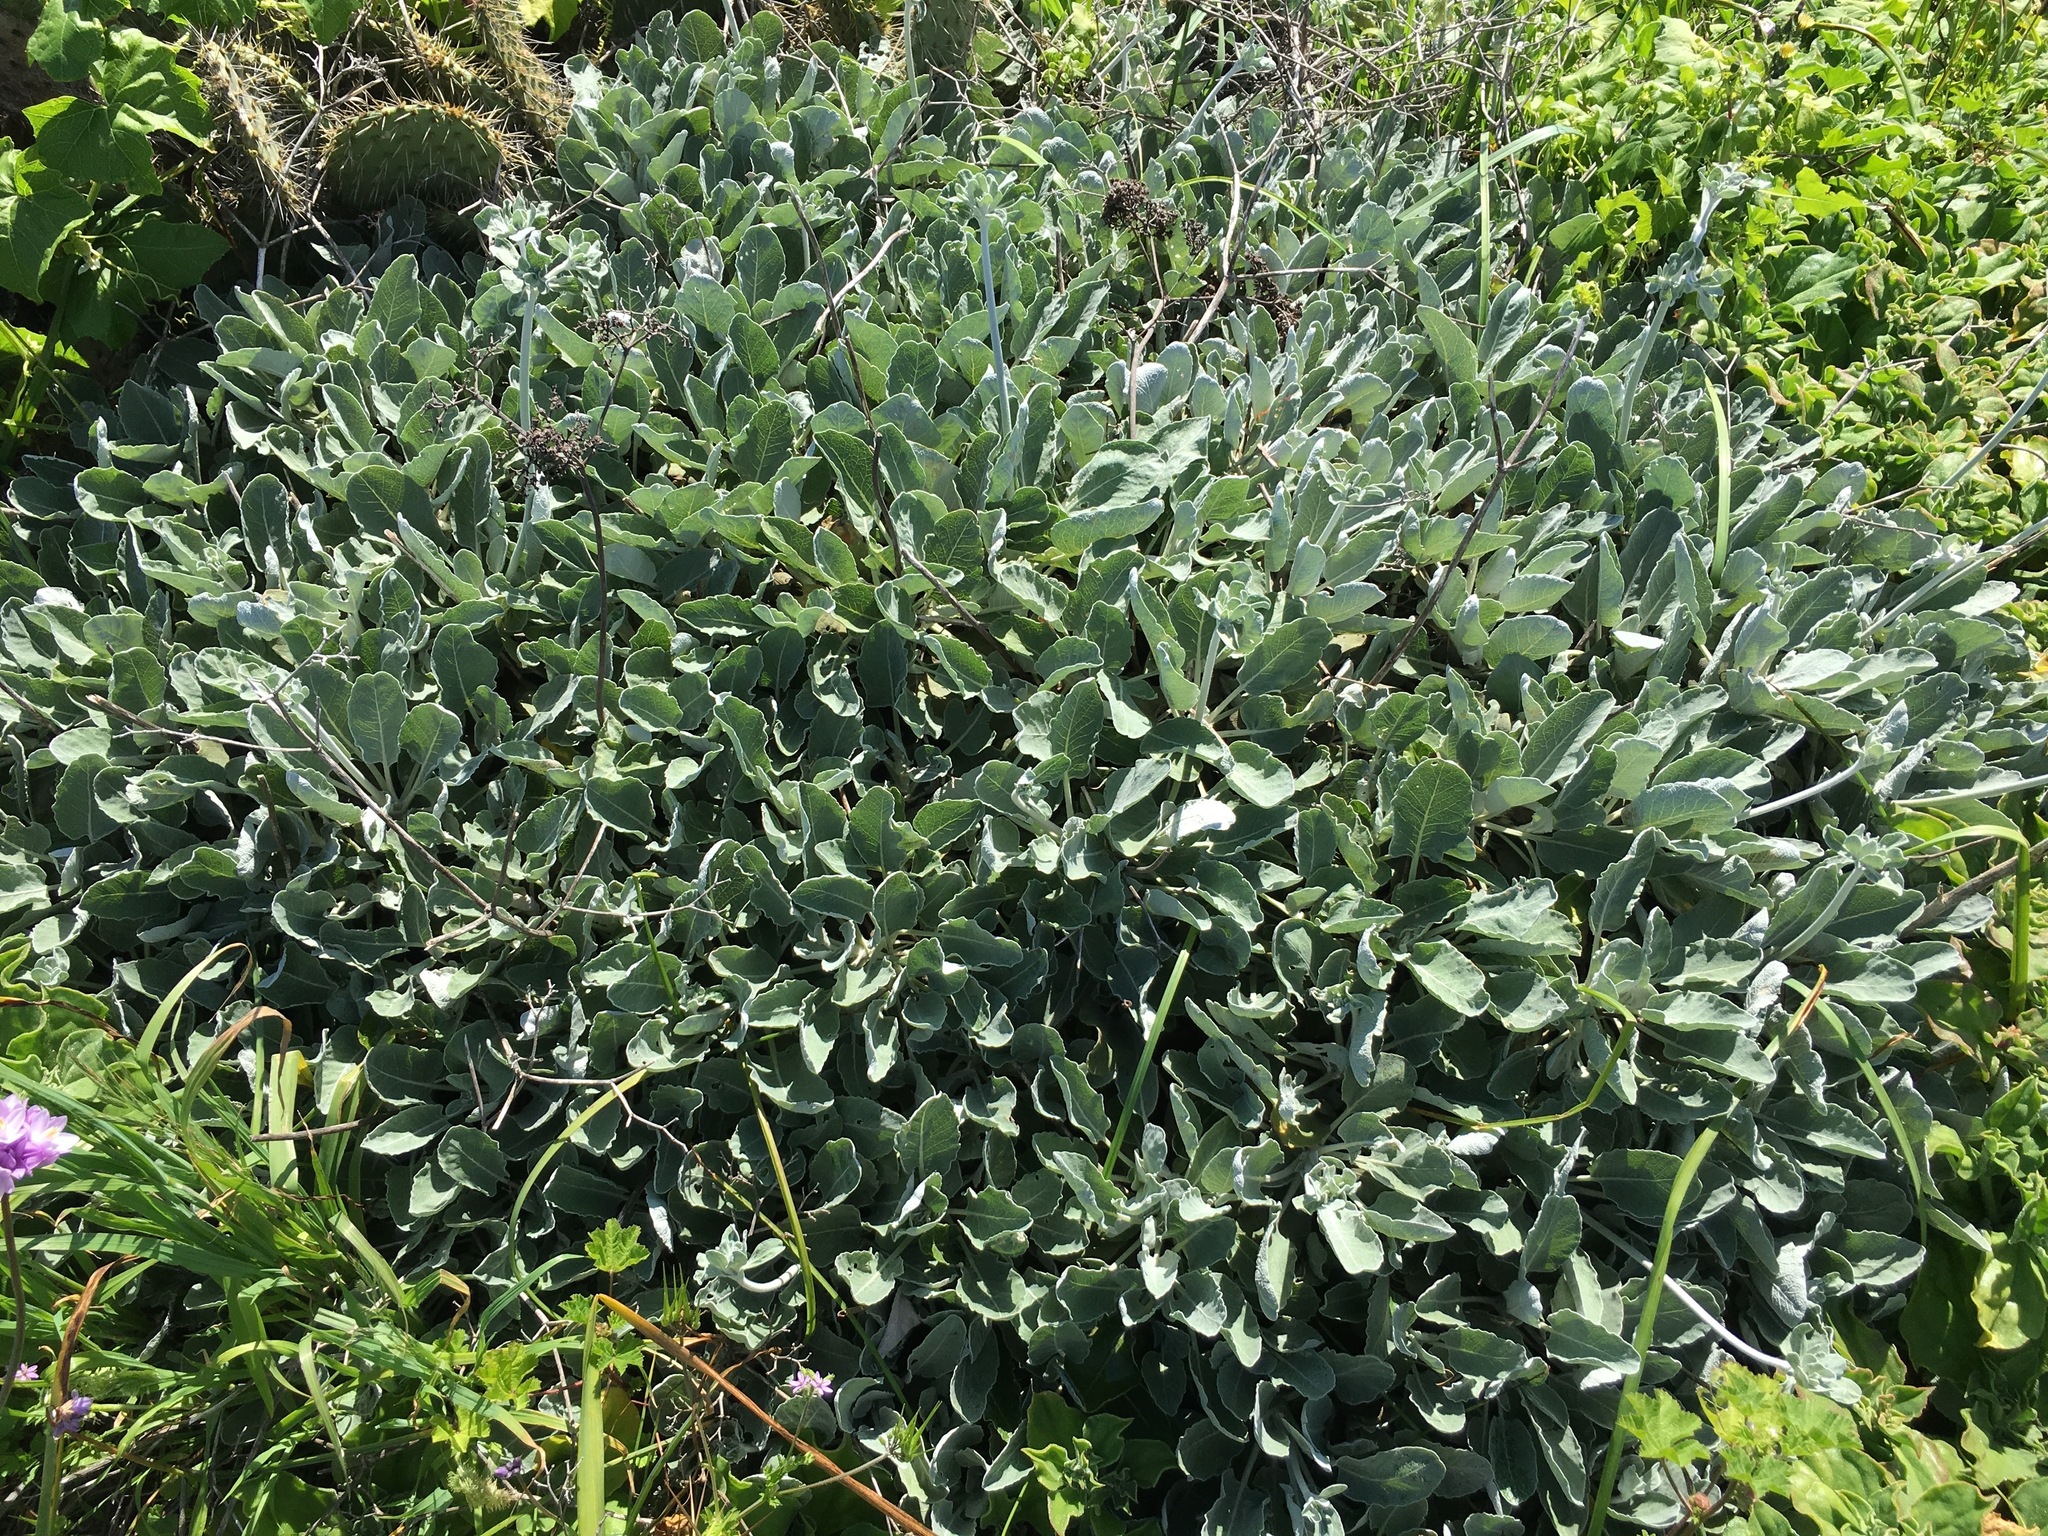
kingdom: Plantae
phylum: Tracheophyta
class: Magnoliopsida
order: Caryophyllales
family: Polygonaceae
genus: Eriogonum
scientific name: Eriogonum giganteum
